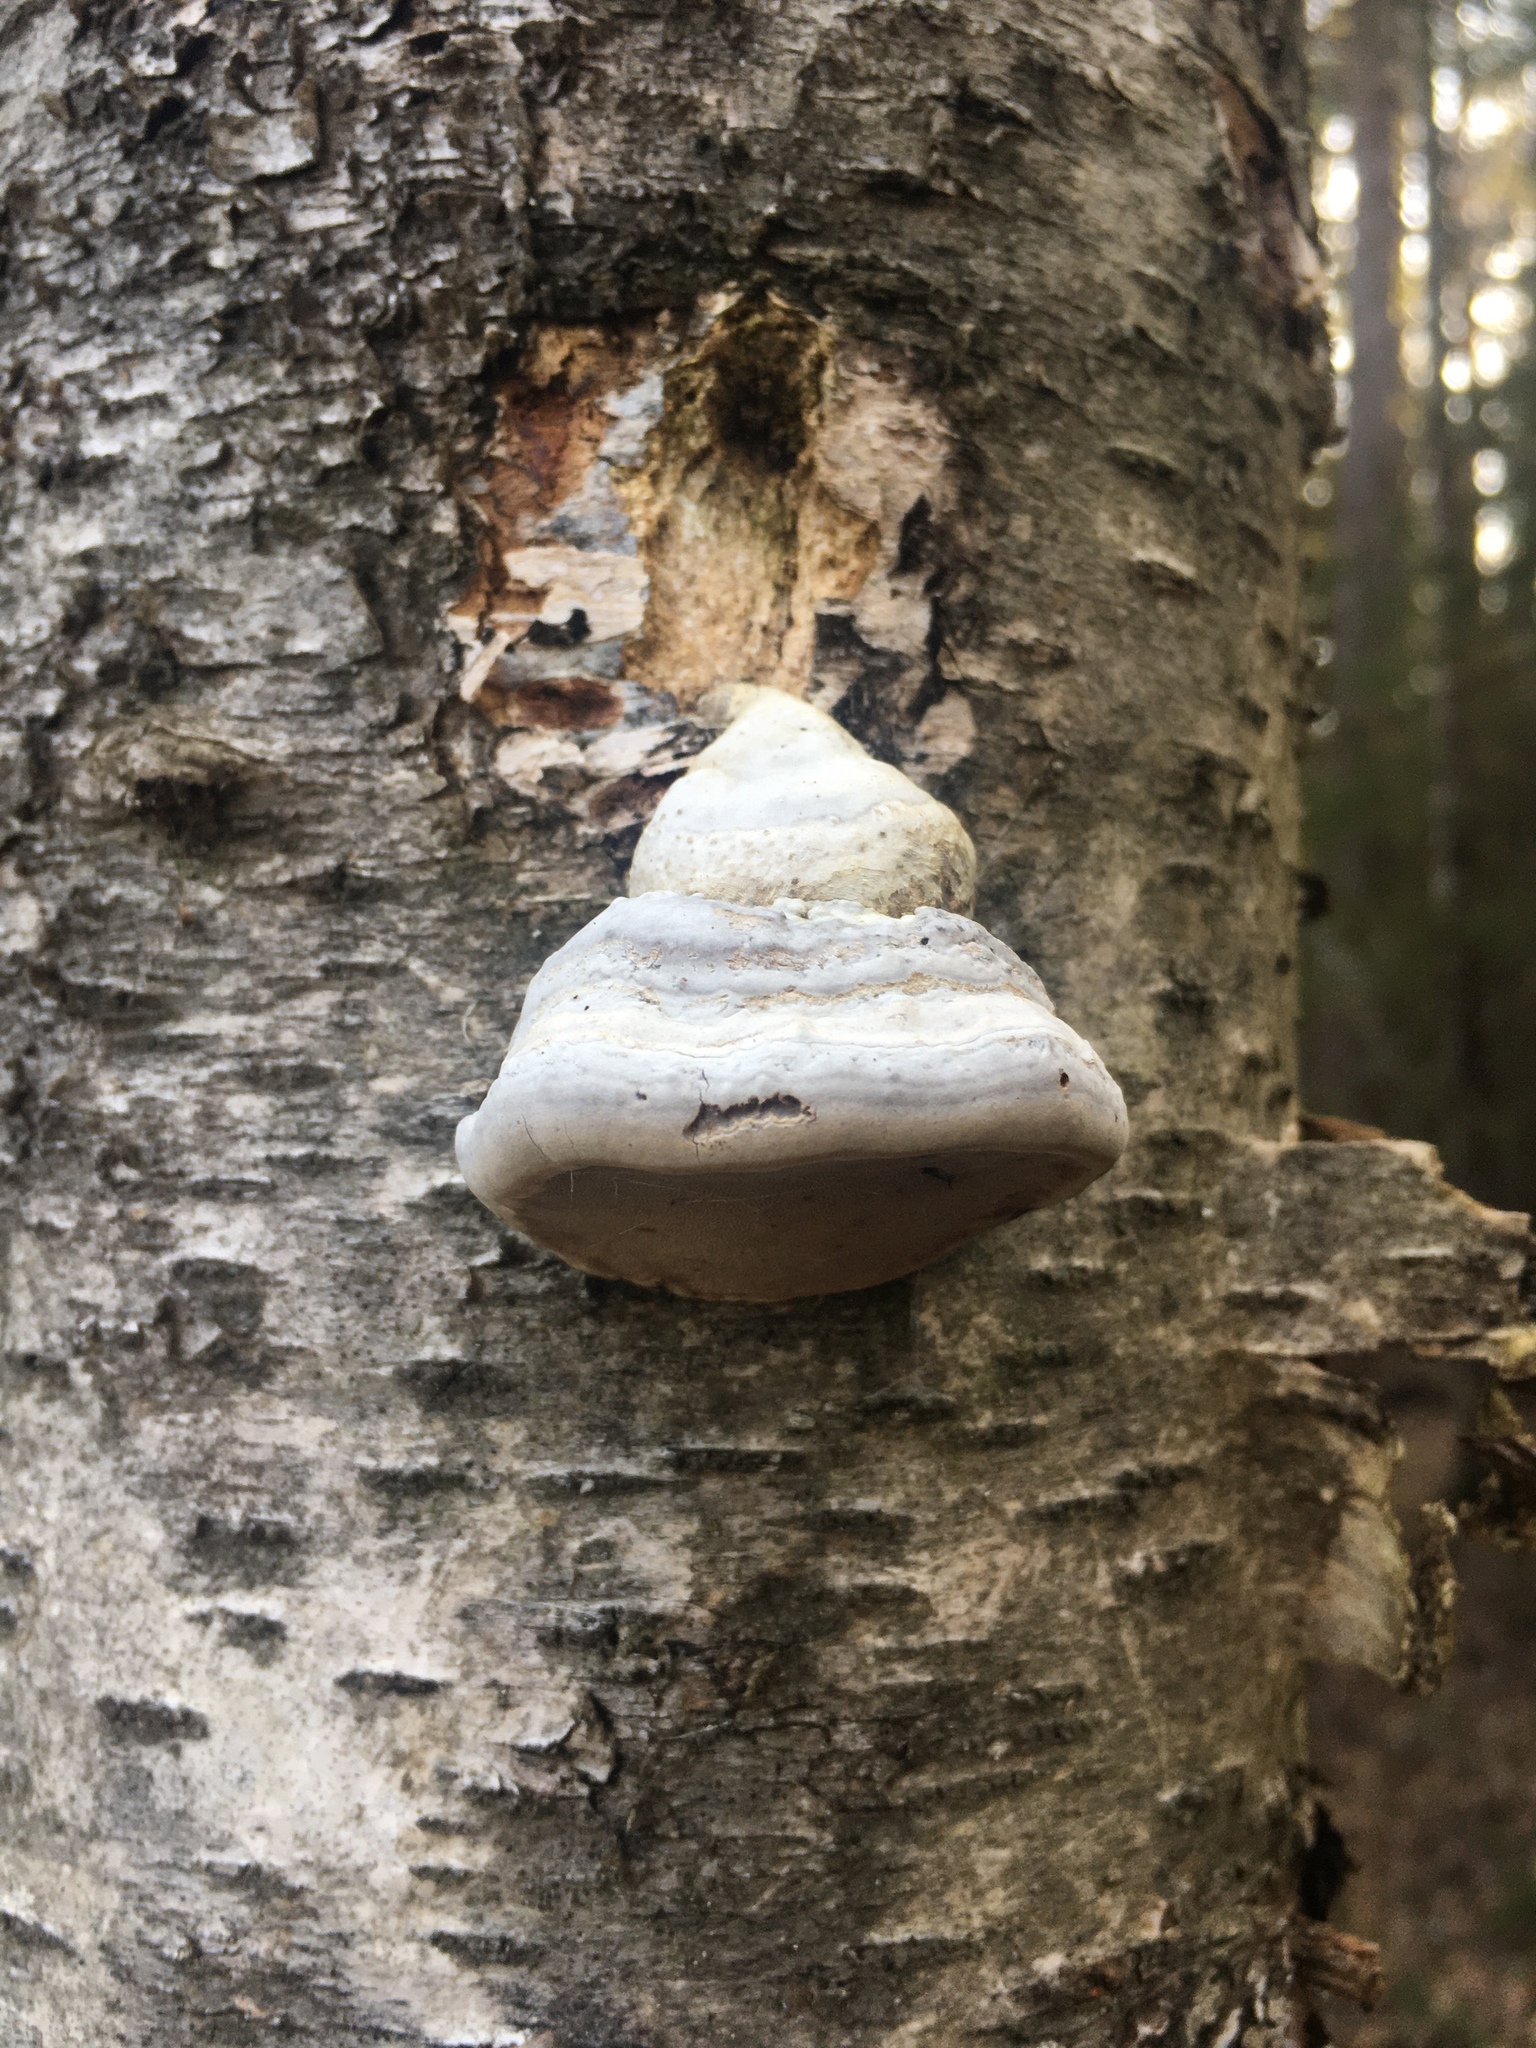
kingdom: Fungi
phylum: Basidiomycota
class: Agaricomycetes
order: Polyporales
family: Polyporaceae
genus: Fomes
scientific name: Fomes fomentarius
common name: Hoof fungus
